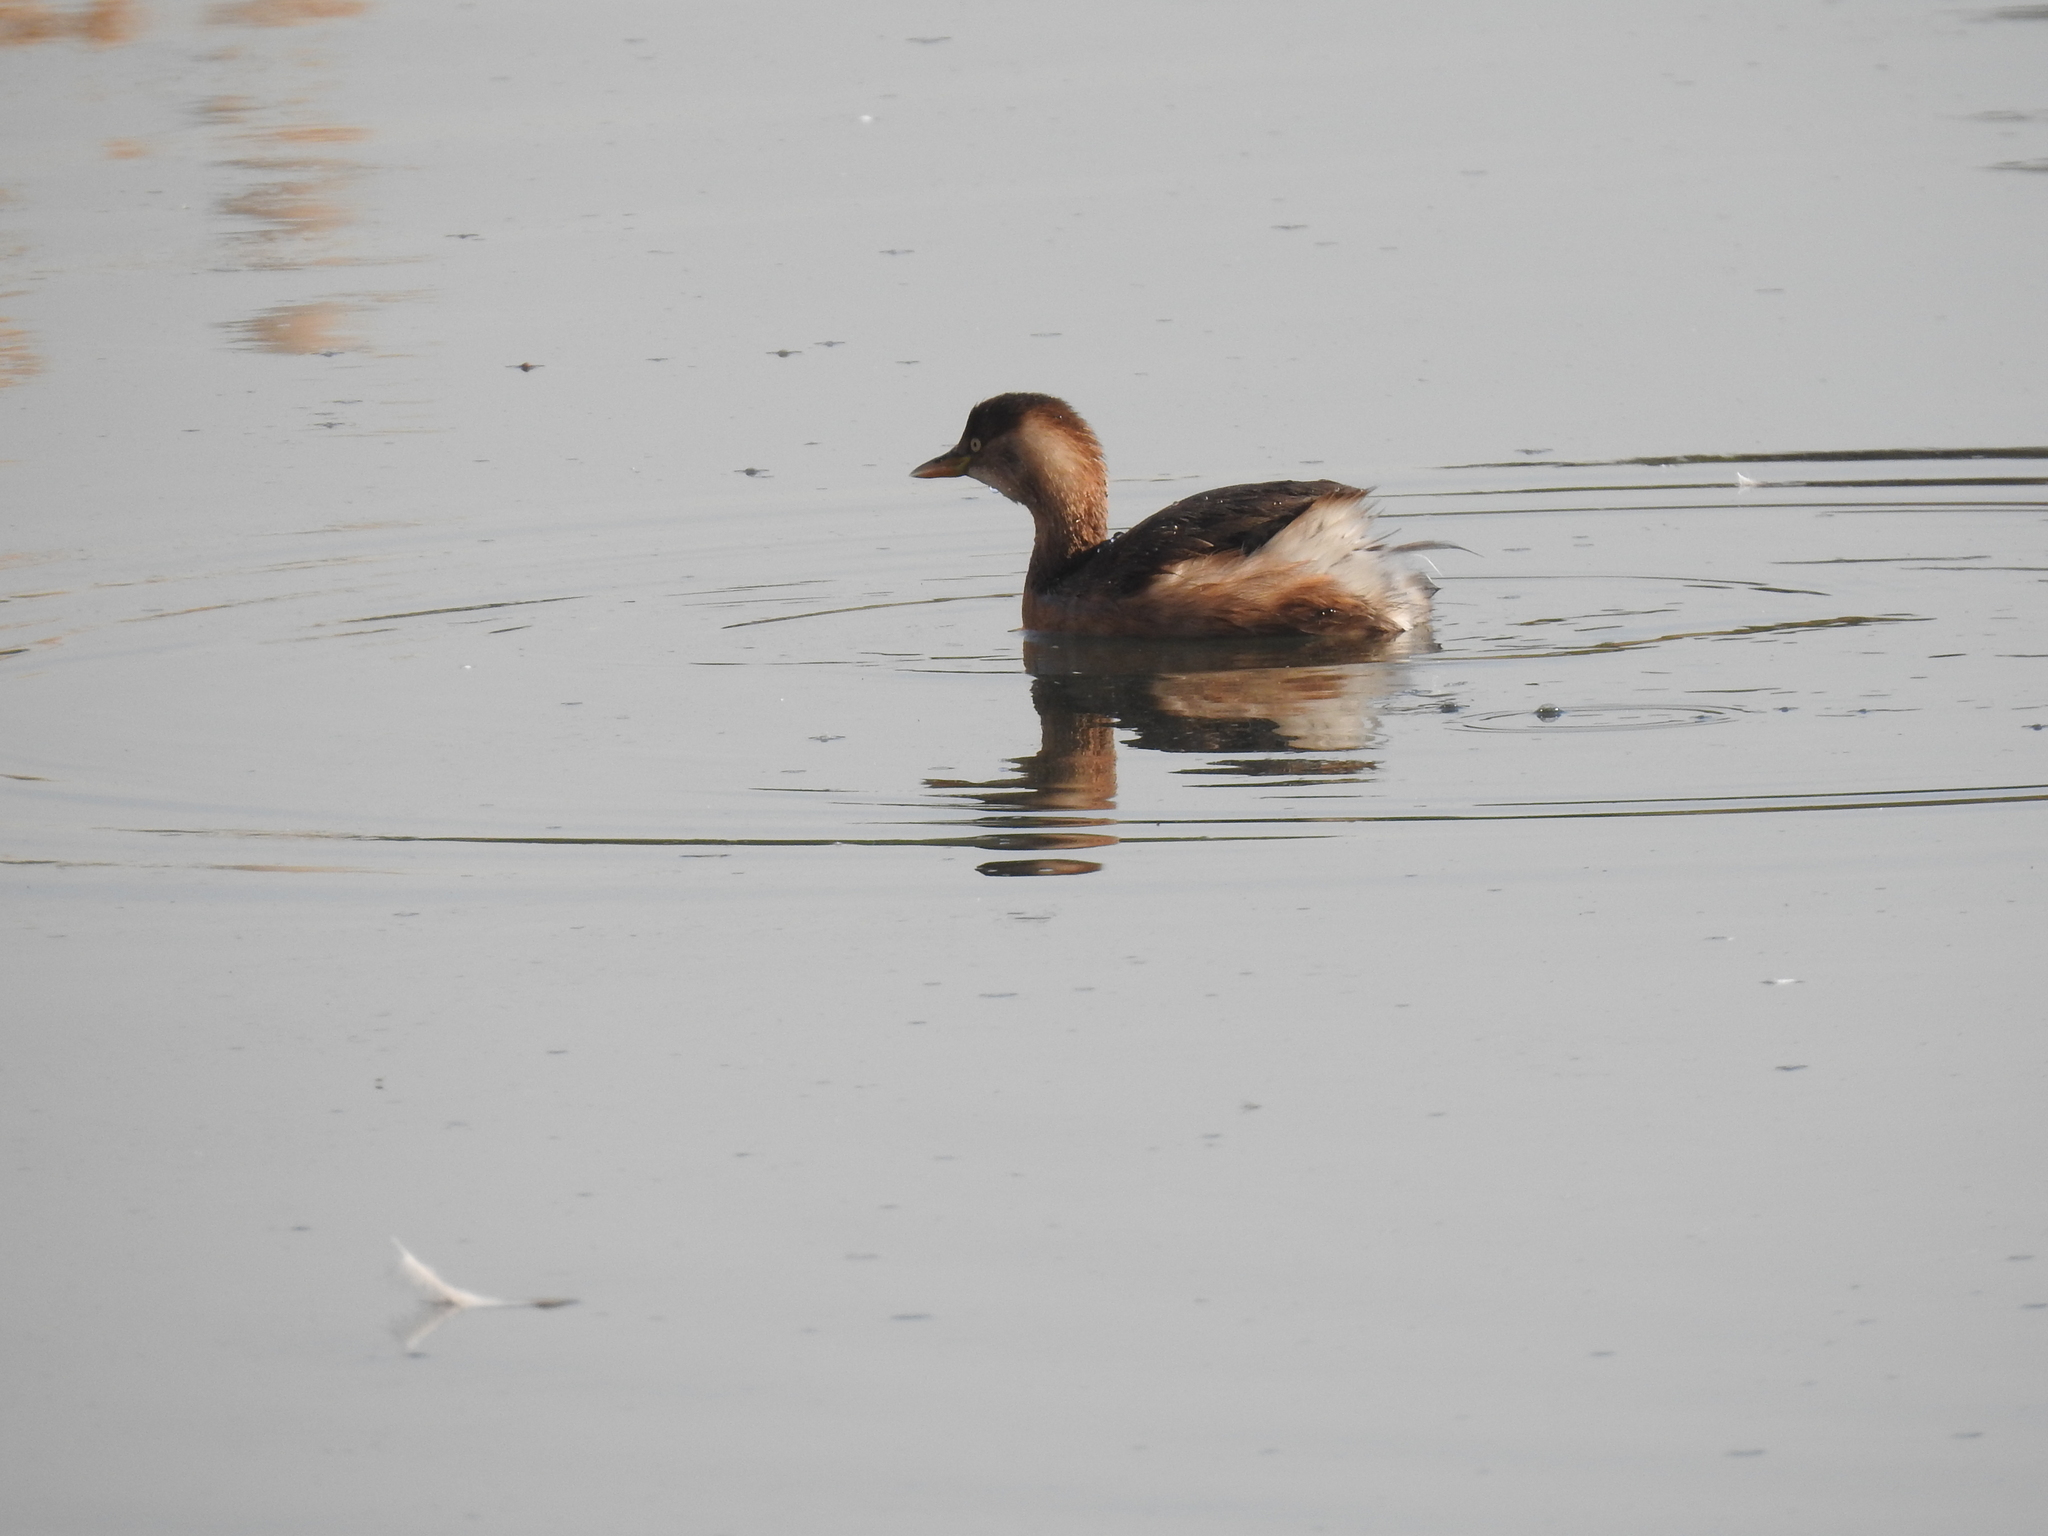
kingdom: Animalia
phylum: Chordata
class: Aves
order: Podicipediformes
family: Podicipedidae
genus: Tachybaptus
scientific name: Tachybaptus ruficollis
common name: Little grebe
